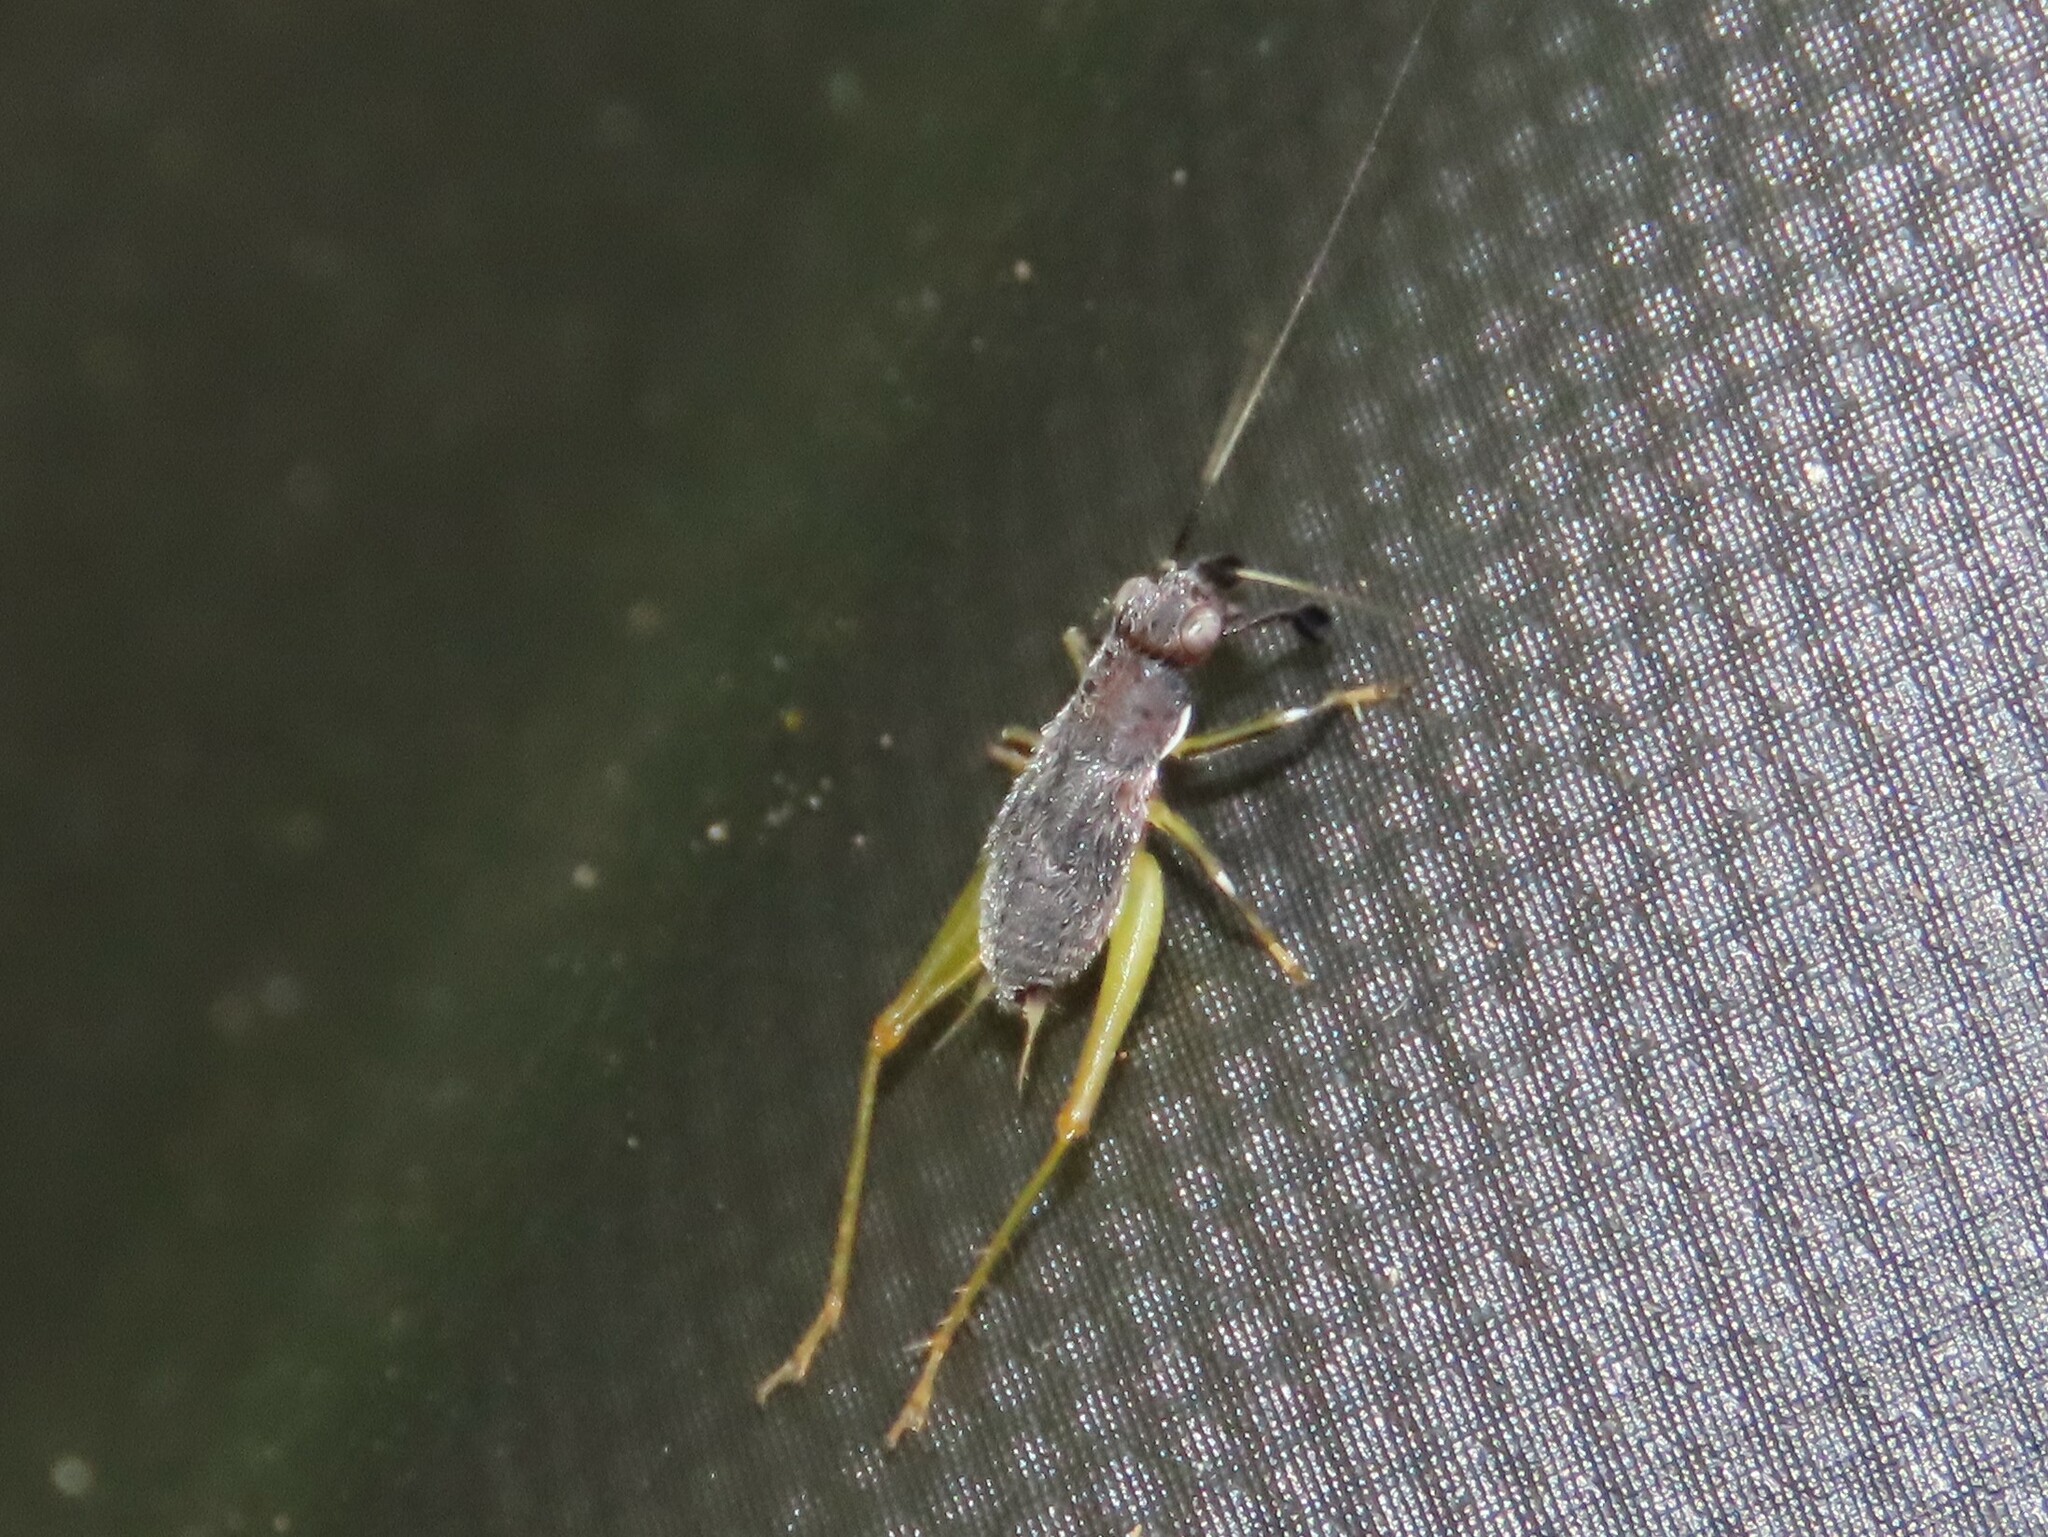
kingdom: Animalia
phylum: Arthropoda
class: Insecta
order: Orthoptera
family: Trigonidiidae
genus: Phyllopalpus
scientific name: Phyllopalpus pulchellus
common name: Handsome trig
